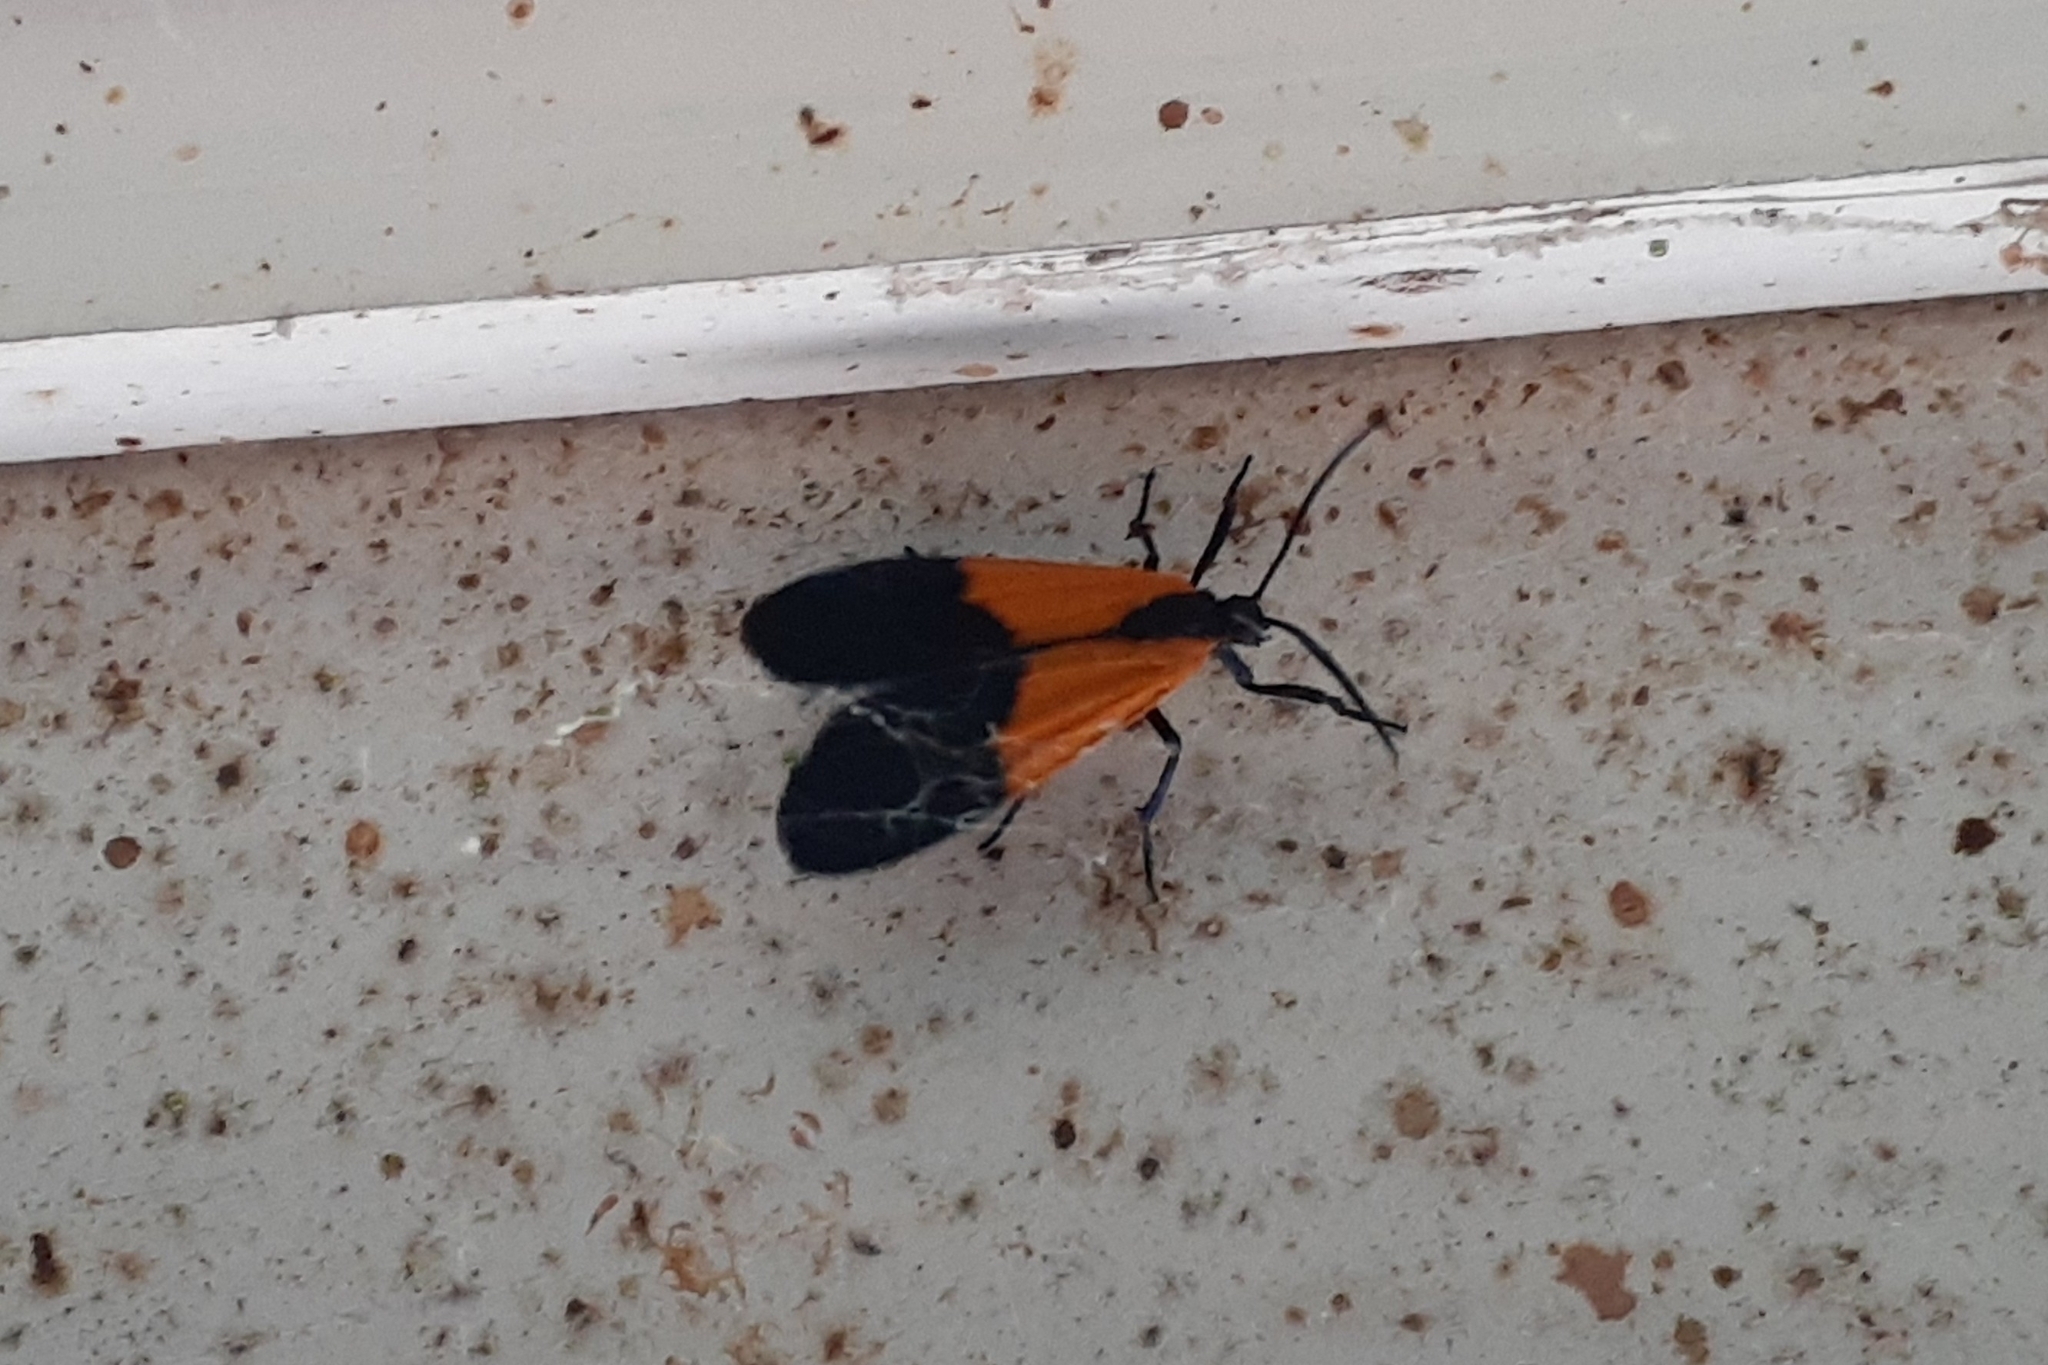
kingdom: Animalia
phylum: Arthropoda
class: Insecta
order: Lepidoptera
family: Erebidae
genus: Lycomorpha
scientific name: Lycomorpha pholus
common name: Black-and-yellow lichen moth
